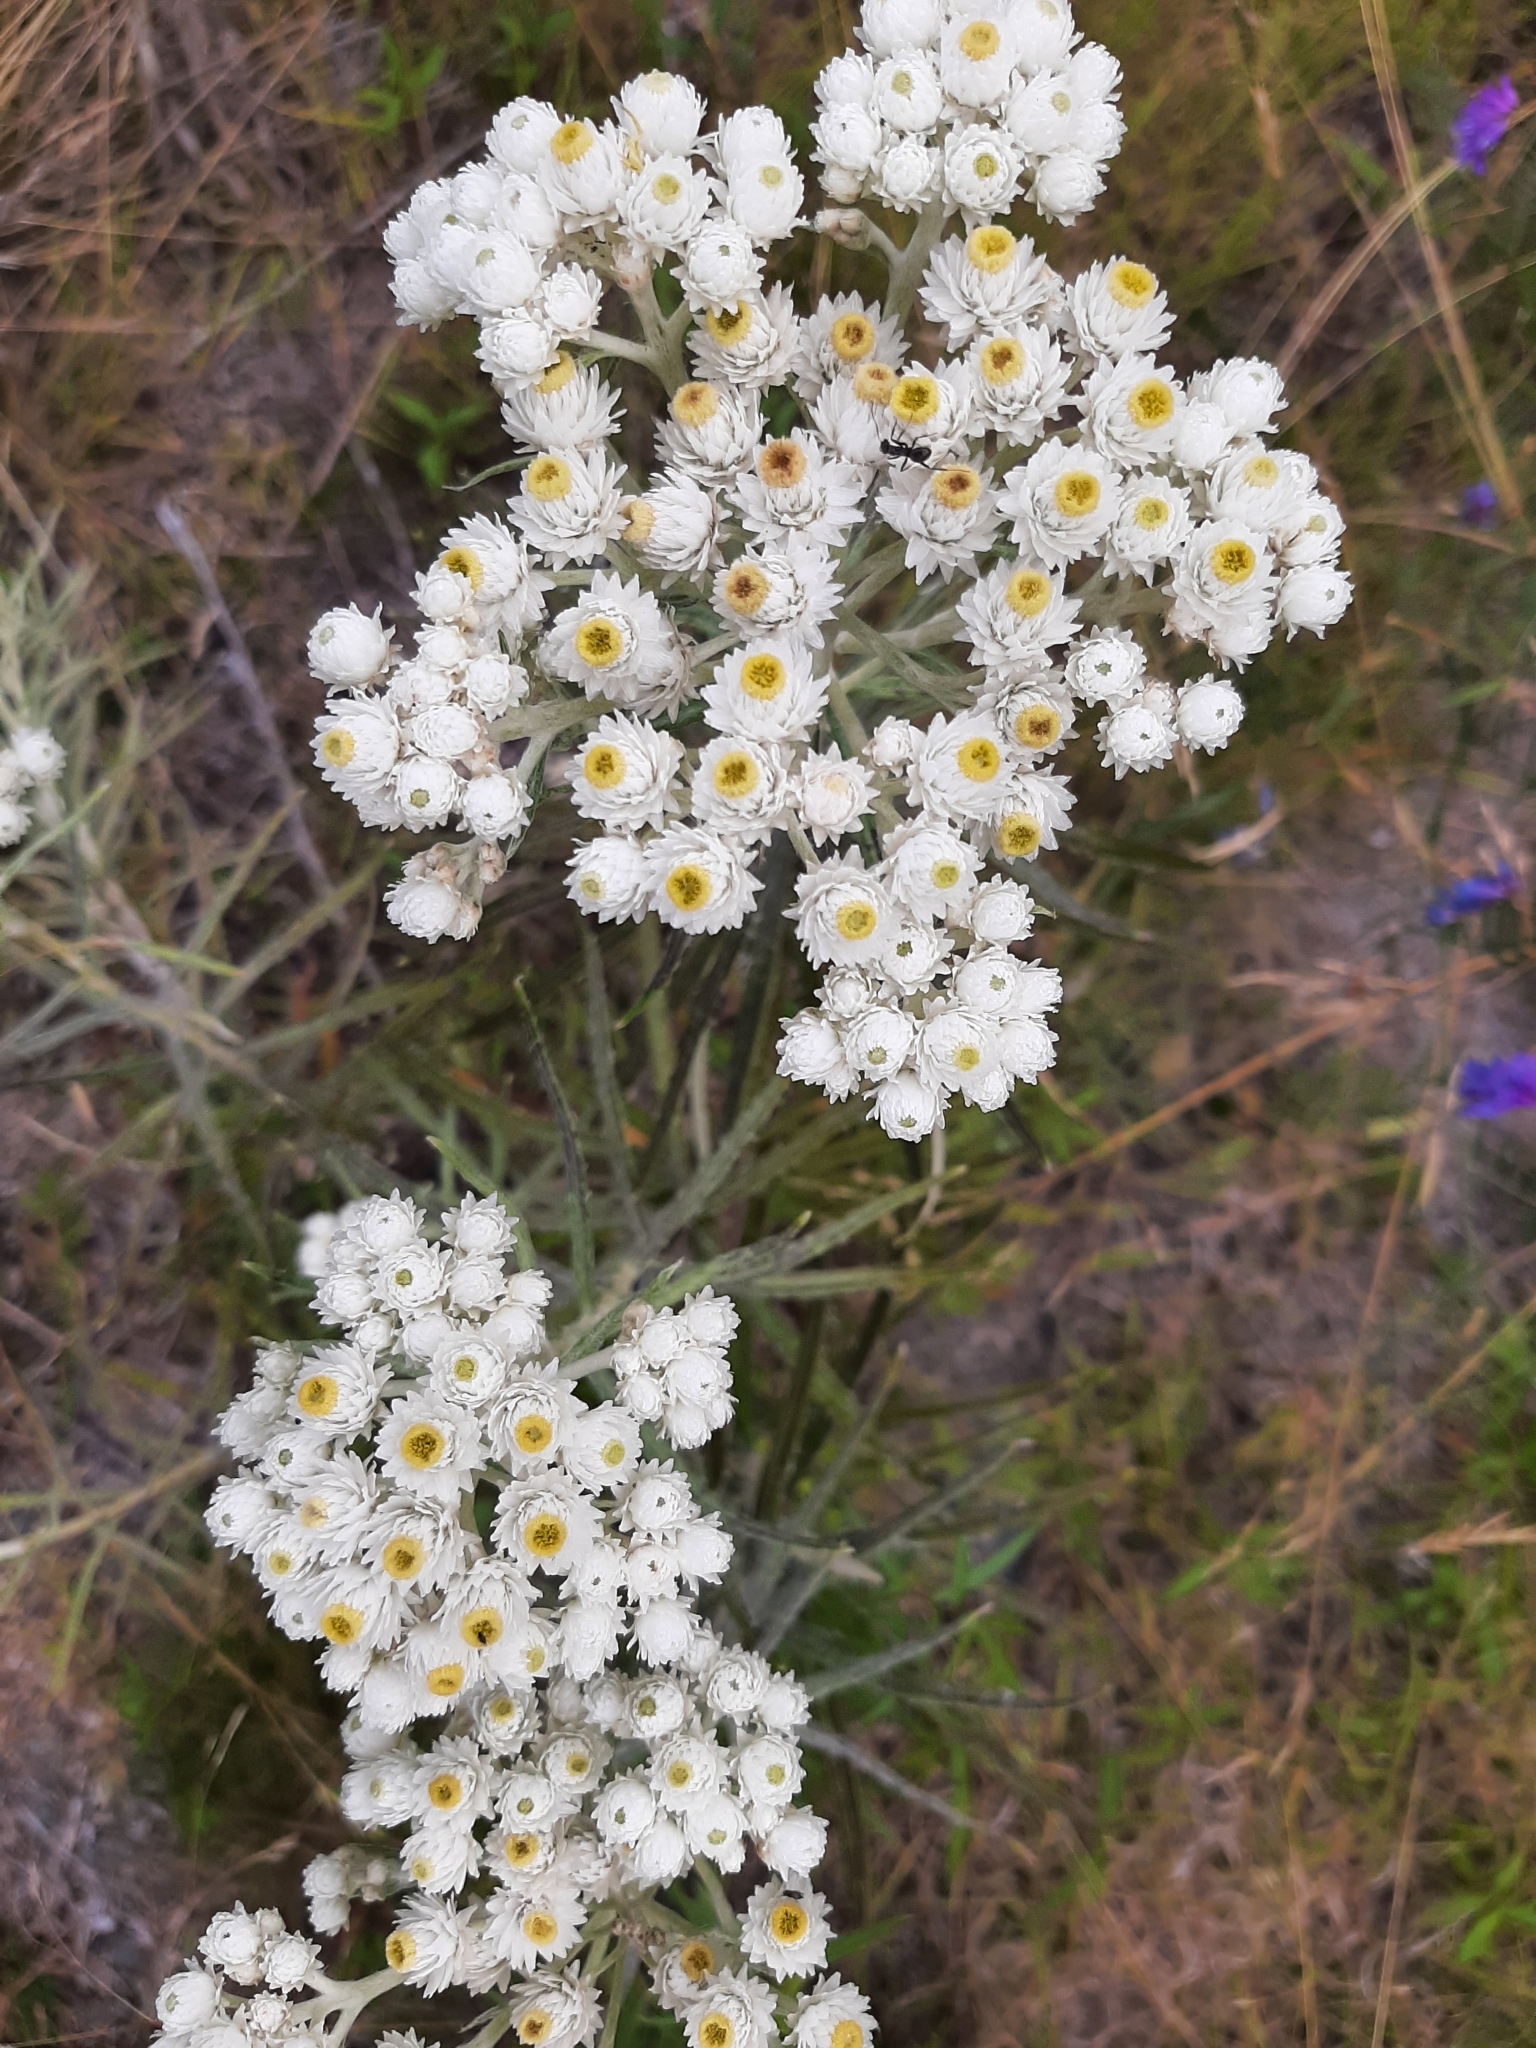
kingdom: Plantae
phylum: Tracheophyta
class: Magnoliopsida
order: Asterales
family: Asteraceae
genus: Anaphalis
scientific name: Anaphalis margaritacea
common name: Pearly everlasting
